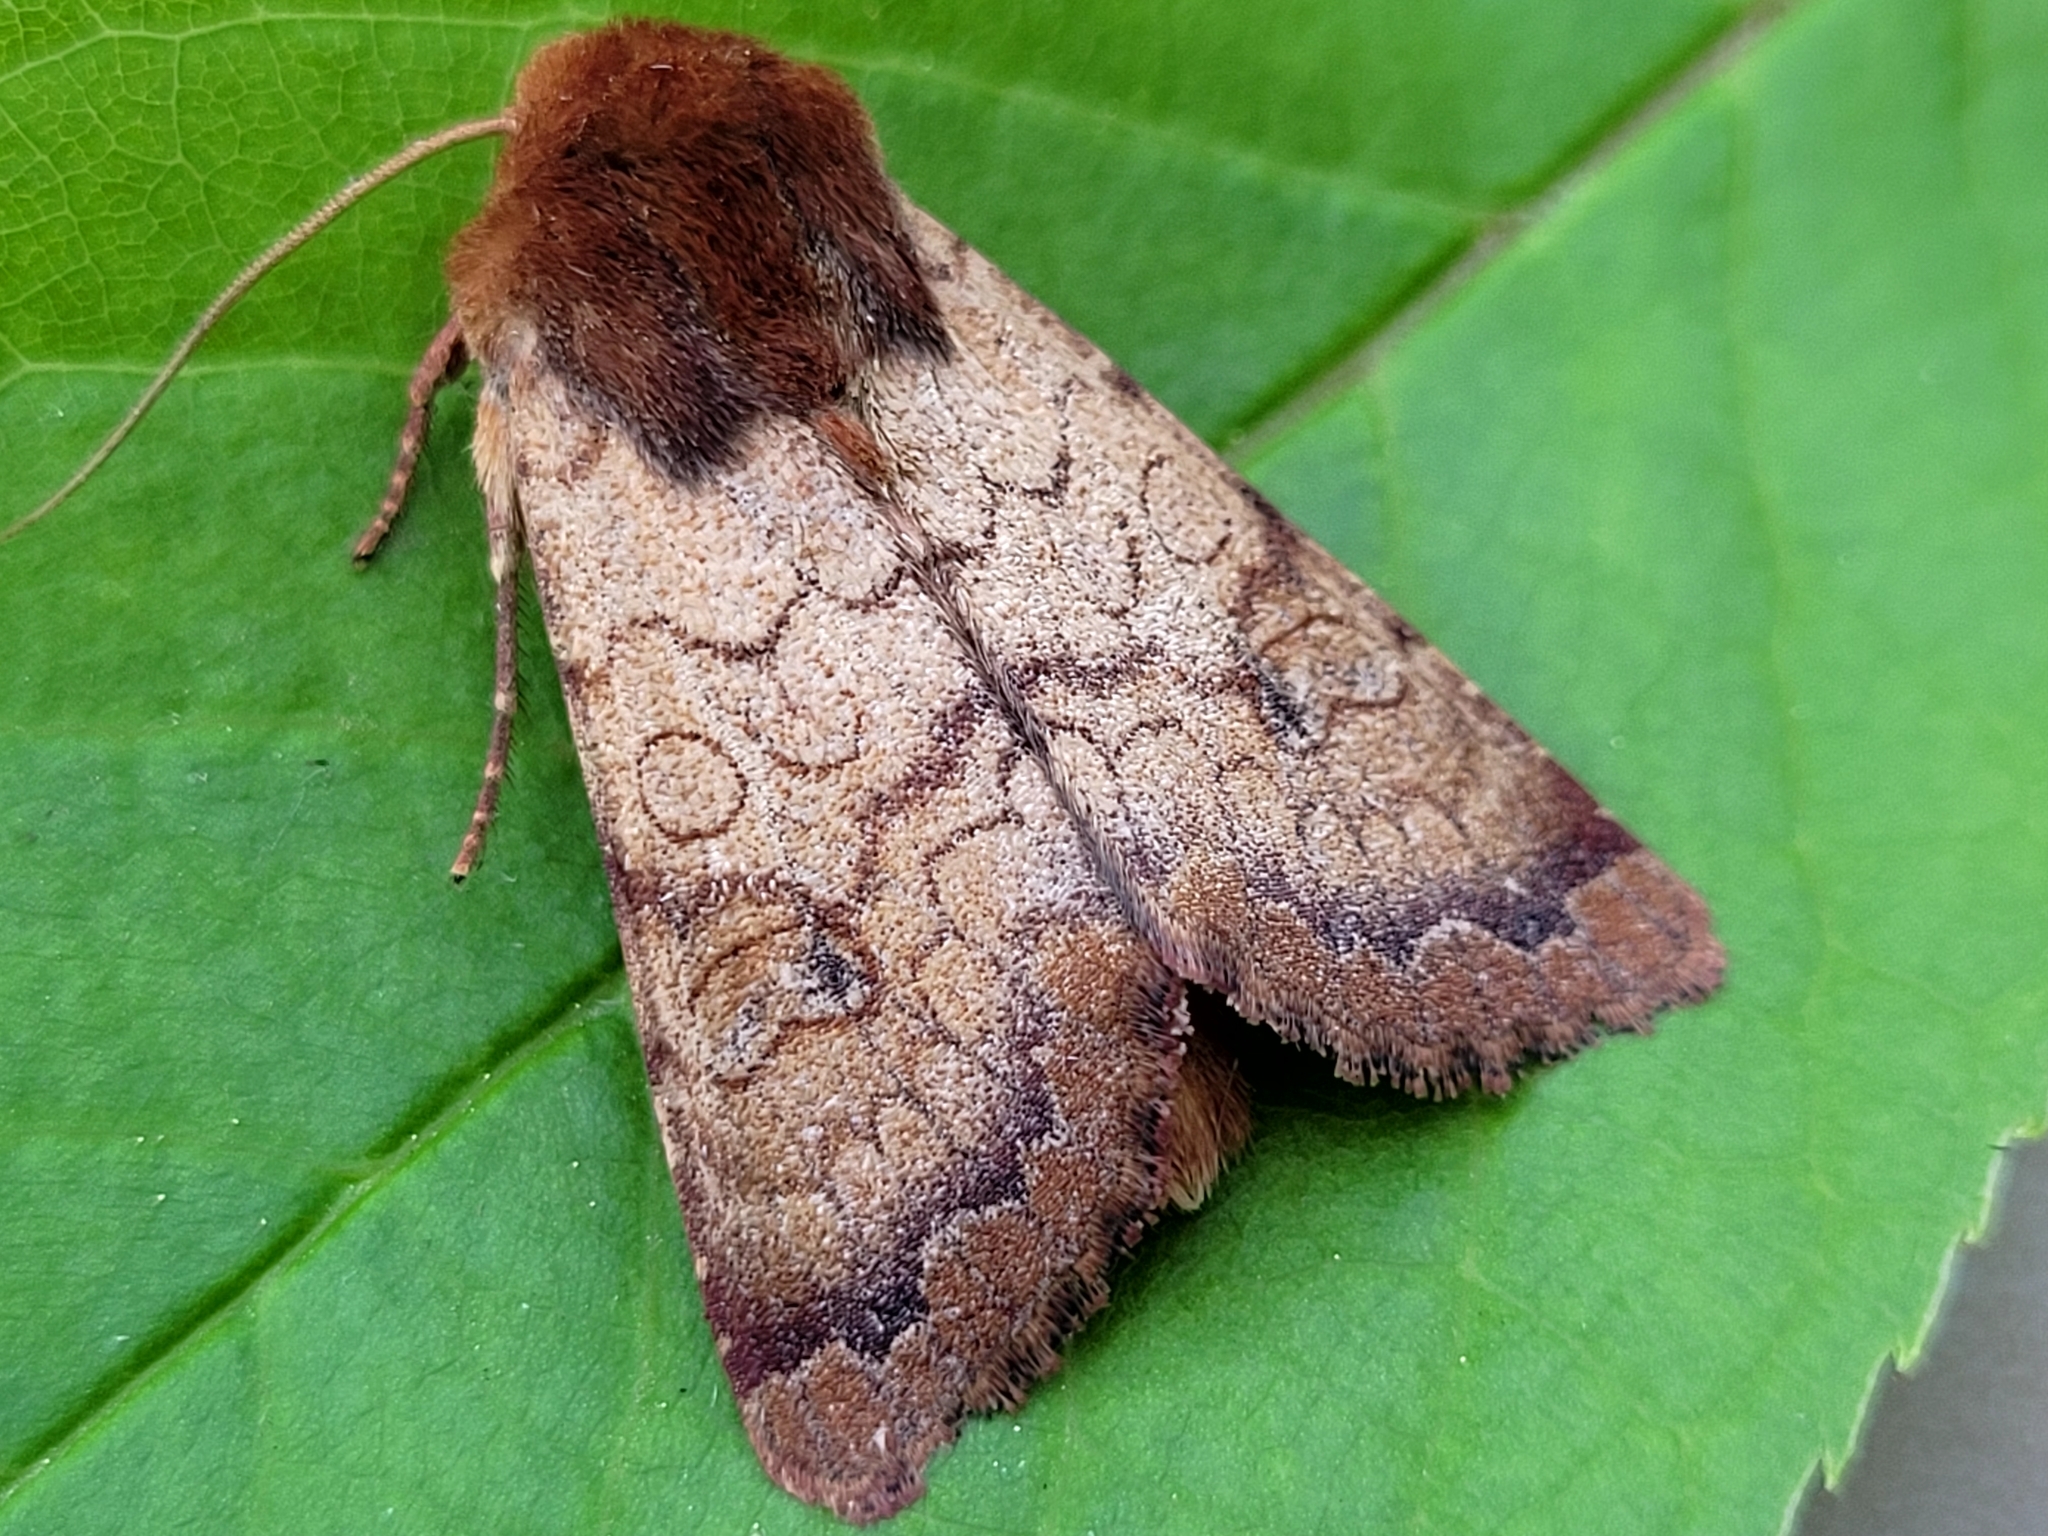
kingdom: Animalia
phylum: Arthropoda
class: Insecta
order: Lepidoptera
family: Noctuidae
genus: Sideridis
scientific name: Sideridis rosea
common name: Rosewing moth
